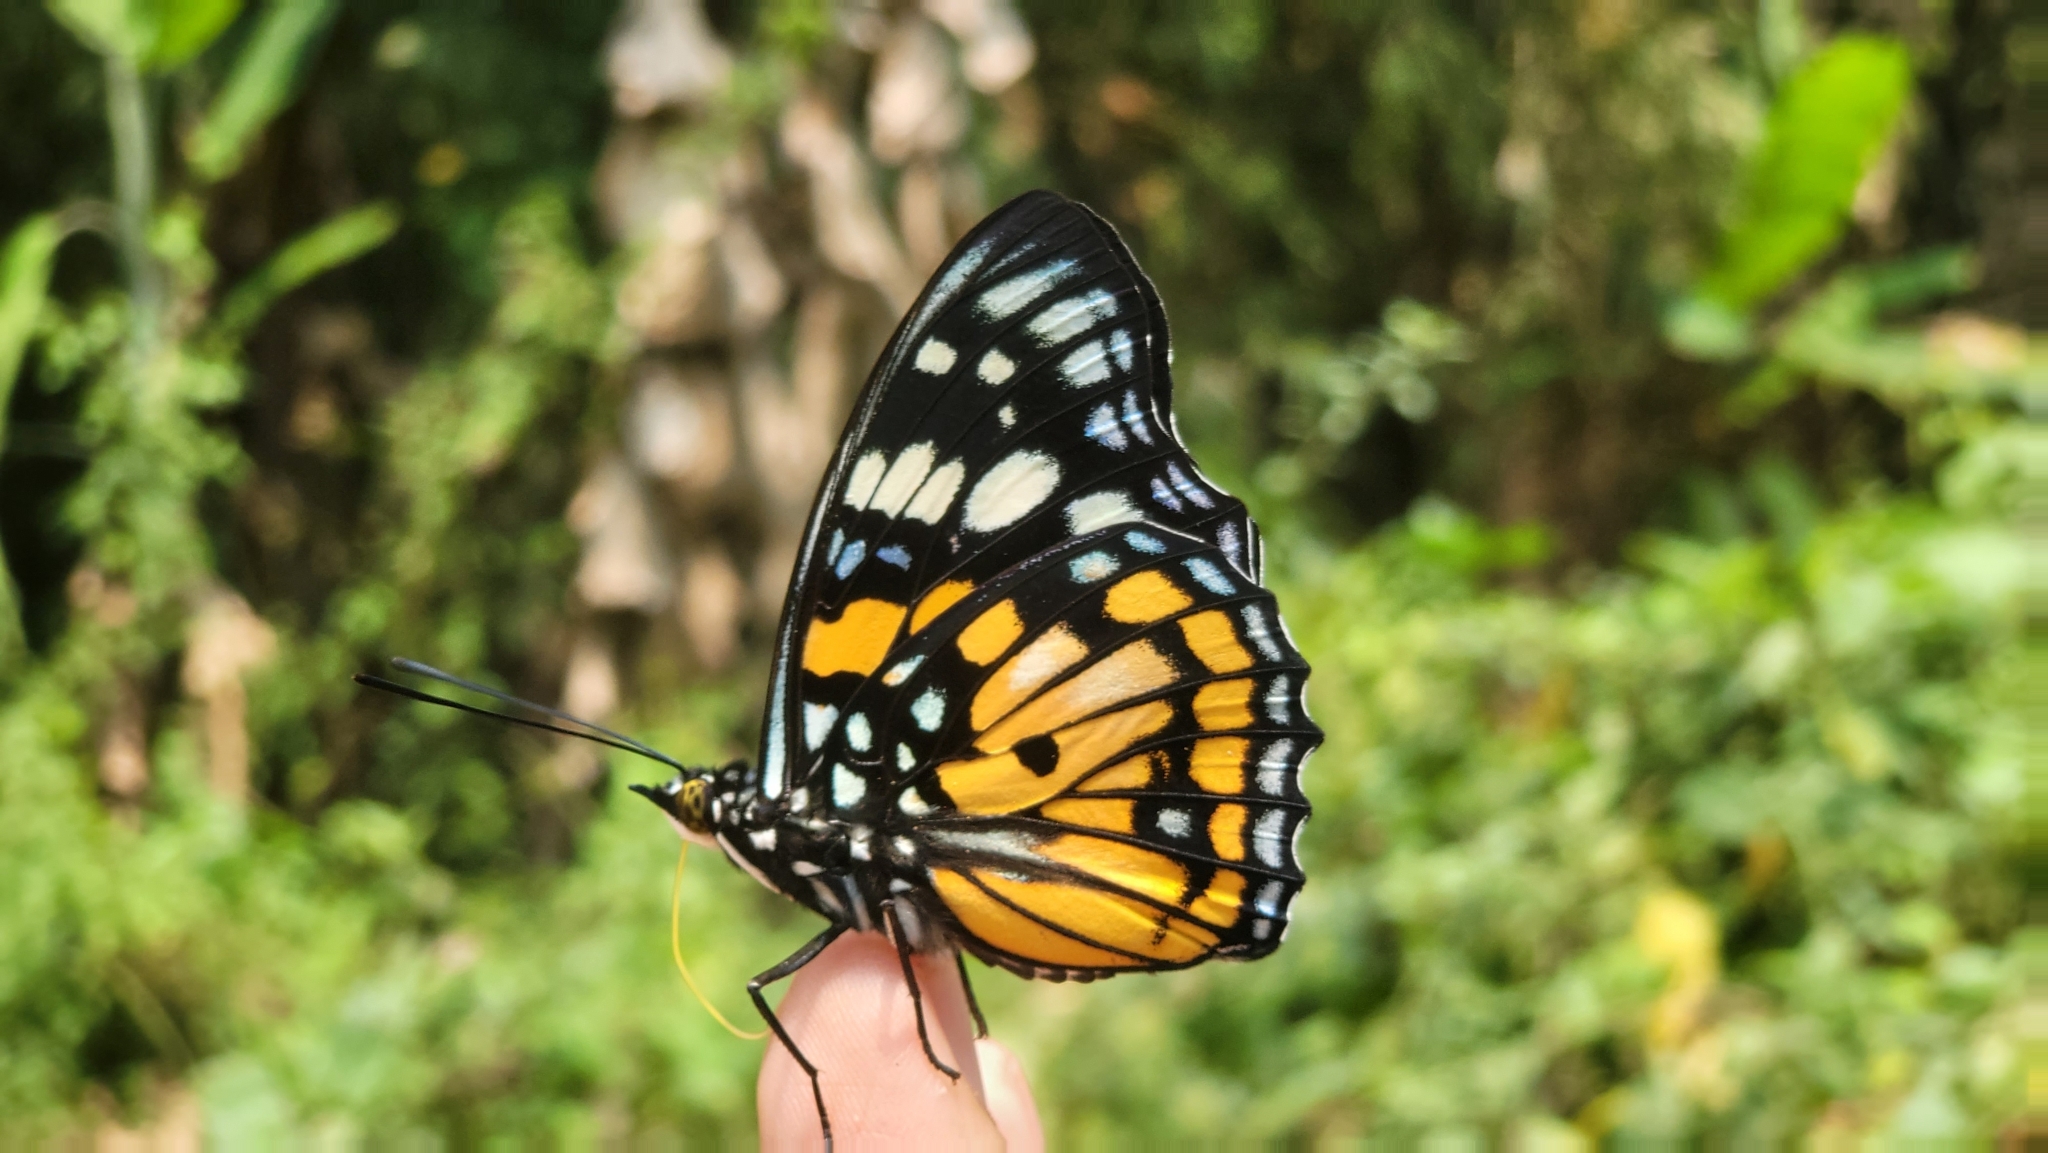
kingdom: Animalia
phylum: Arthropoda
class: Insecta
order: Lepidoptera
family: Nymphalidae
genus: Sephisa
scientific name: Sephisa chandra
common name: Eastern courtier
